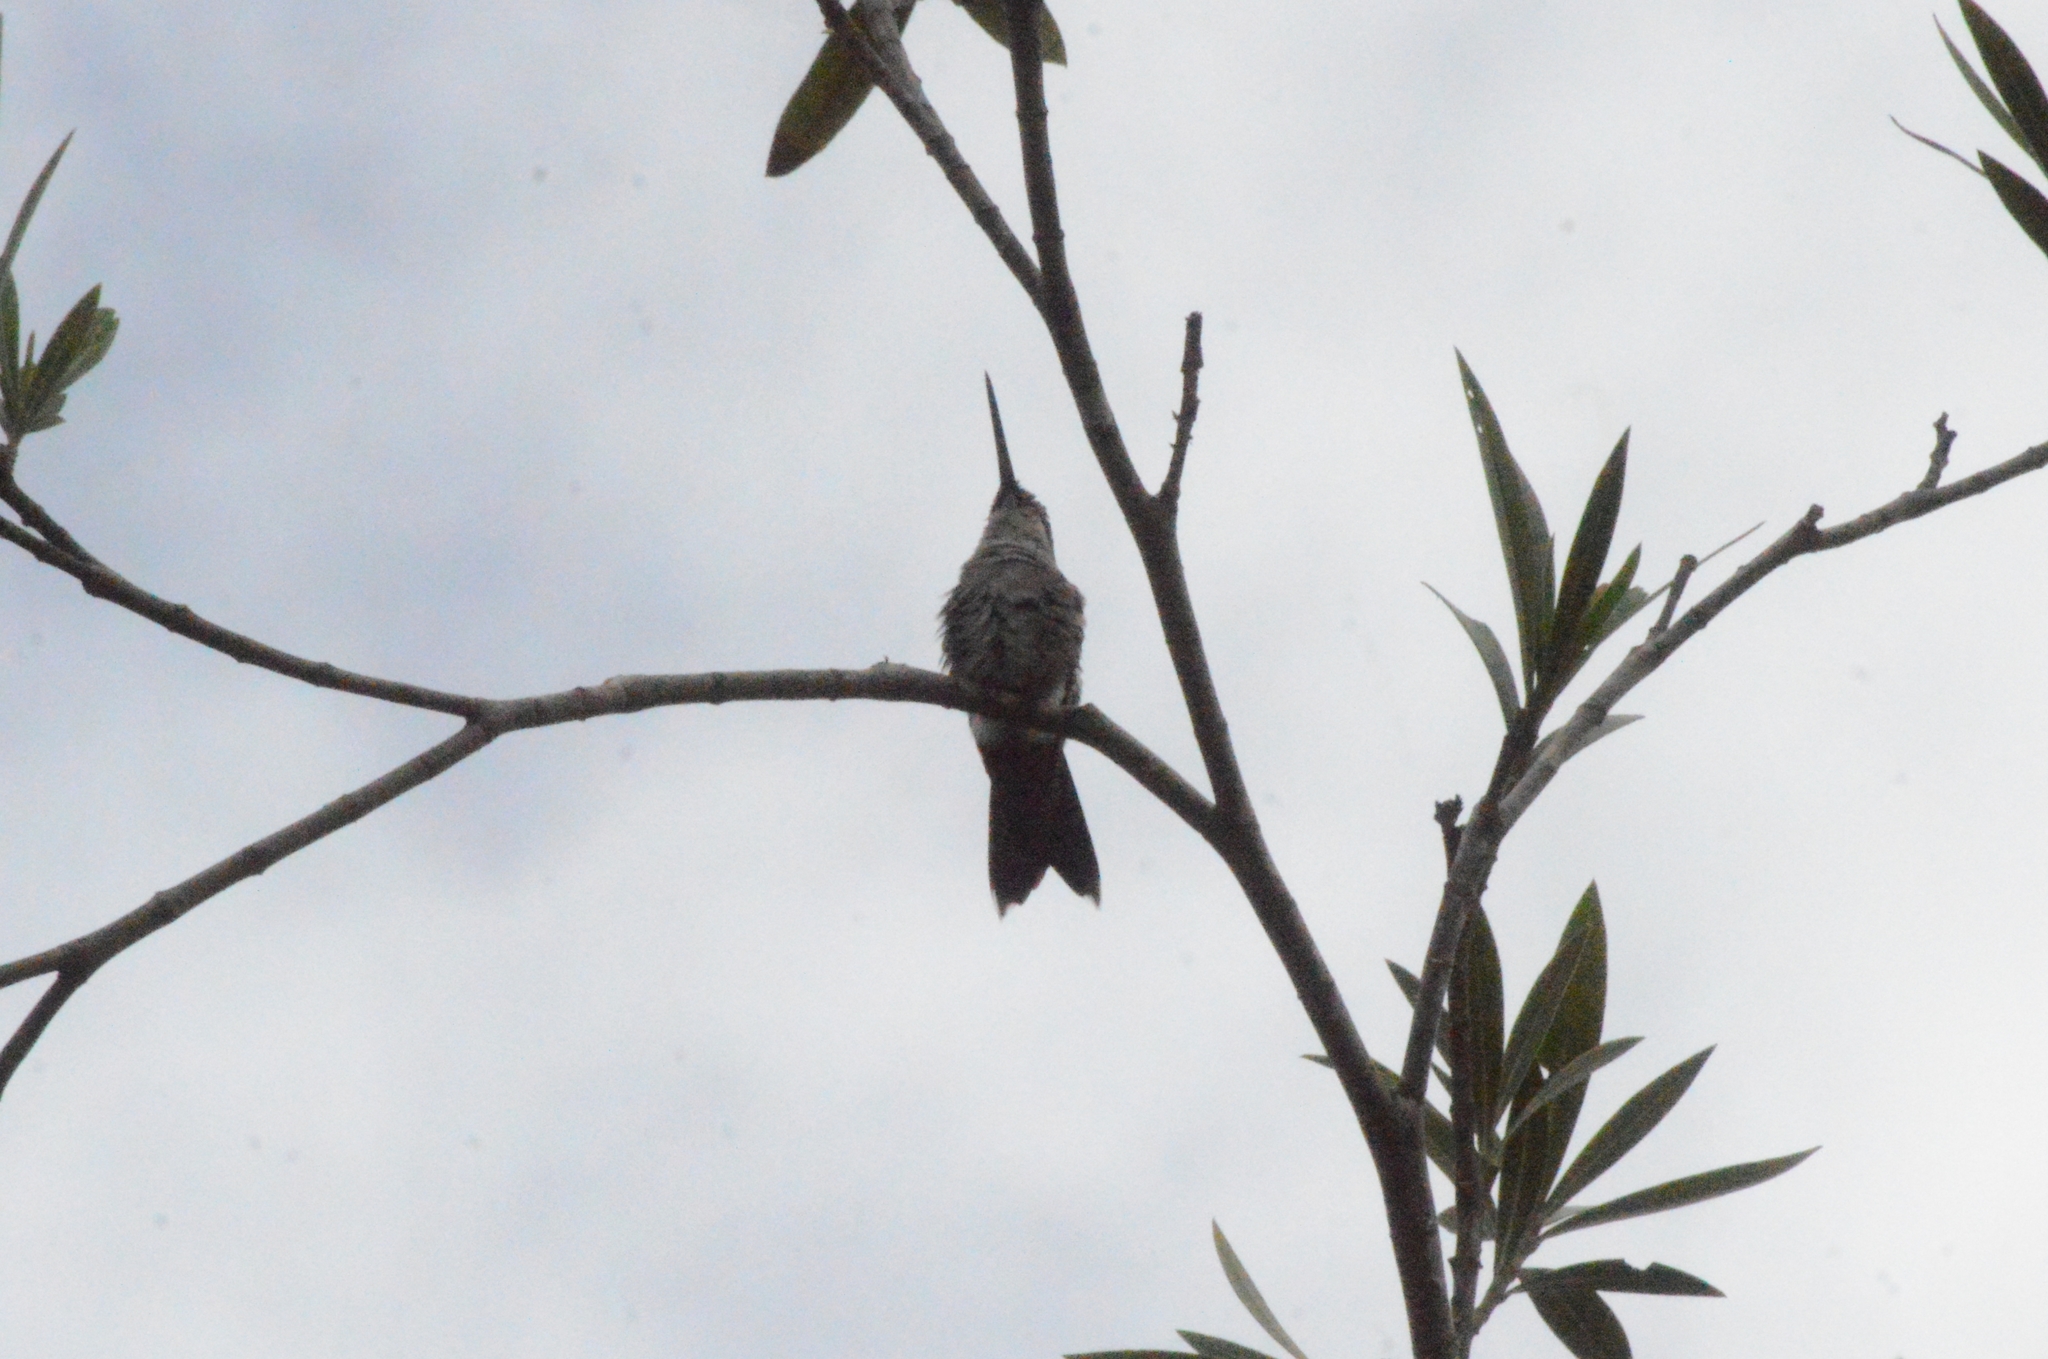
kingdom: Animalia
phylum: Chordata
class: Aves
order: Apodiformes
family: Trochilidae
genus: Heliomaster
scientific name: Heliomaster squamosus
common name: Stripe-breasted starthroat
